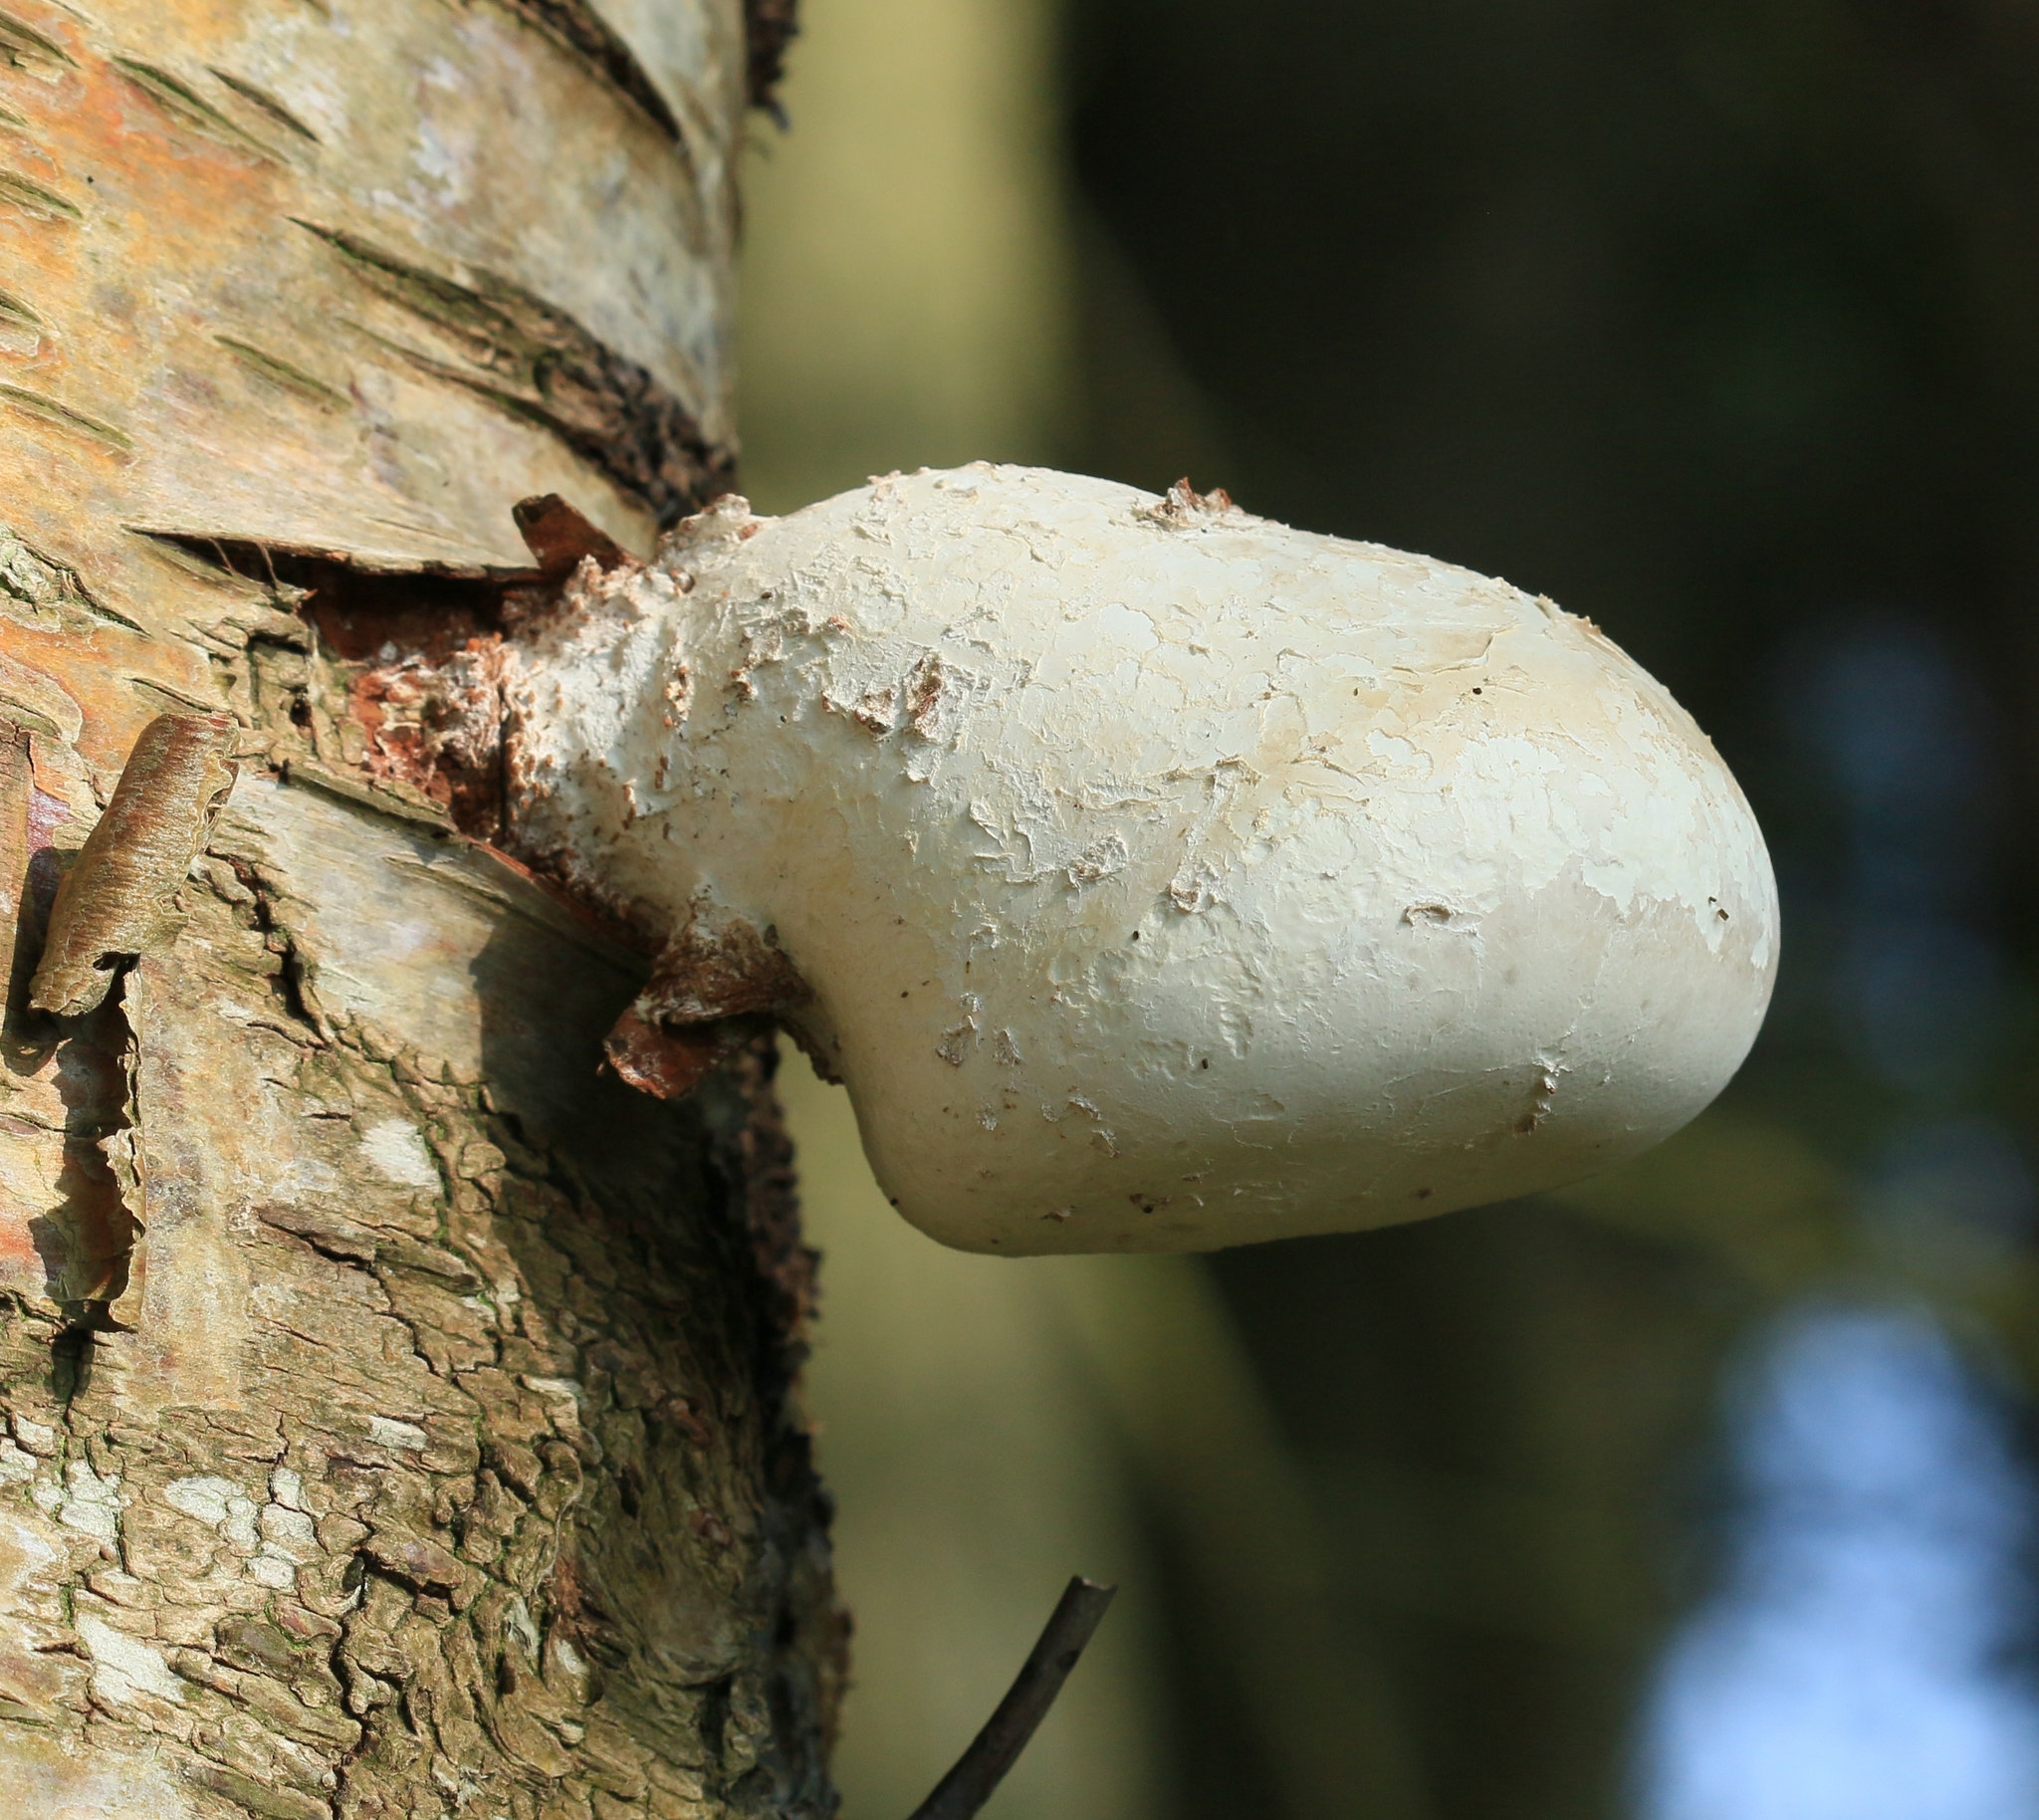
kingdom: Fungi
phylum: Basidiomycota
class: Agaricomycetes
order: Polyporales
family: Fomitopsidaceae
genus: Fomitopsis
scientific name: Fomitopsis betulina
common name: Birch polypore
